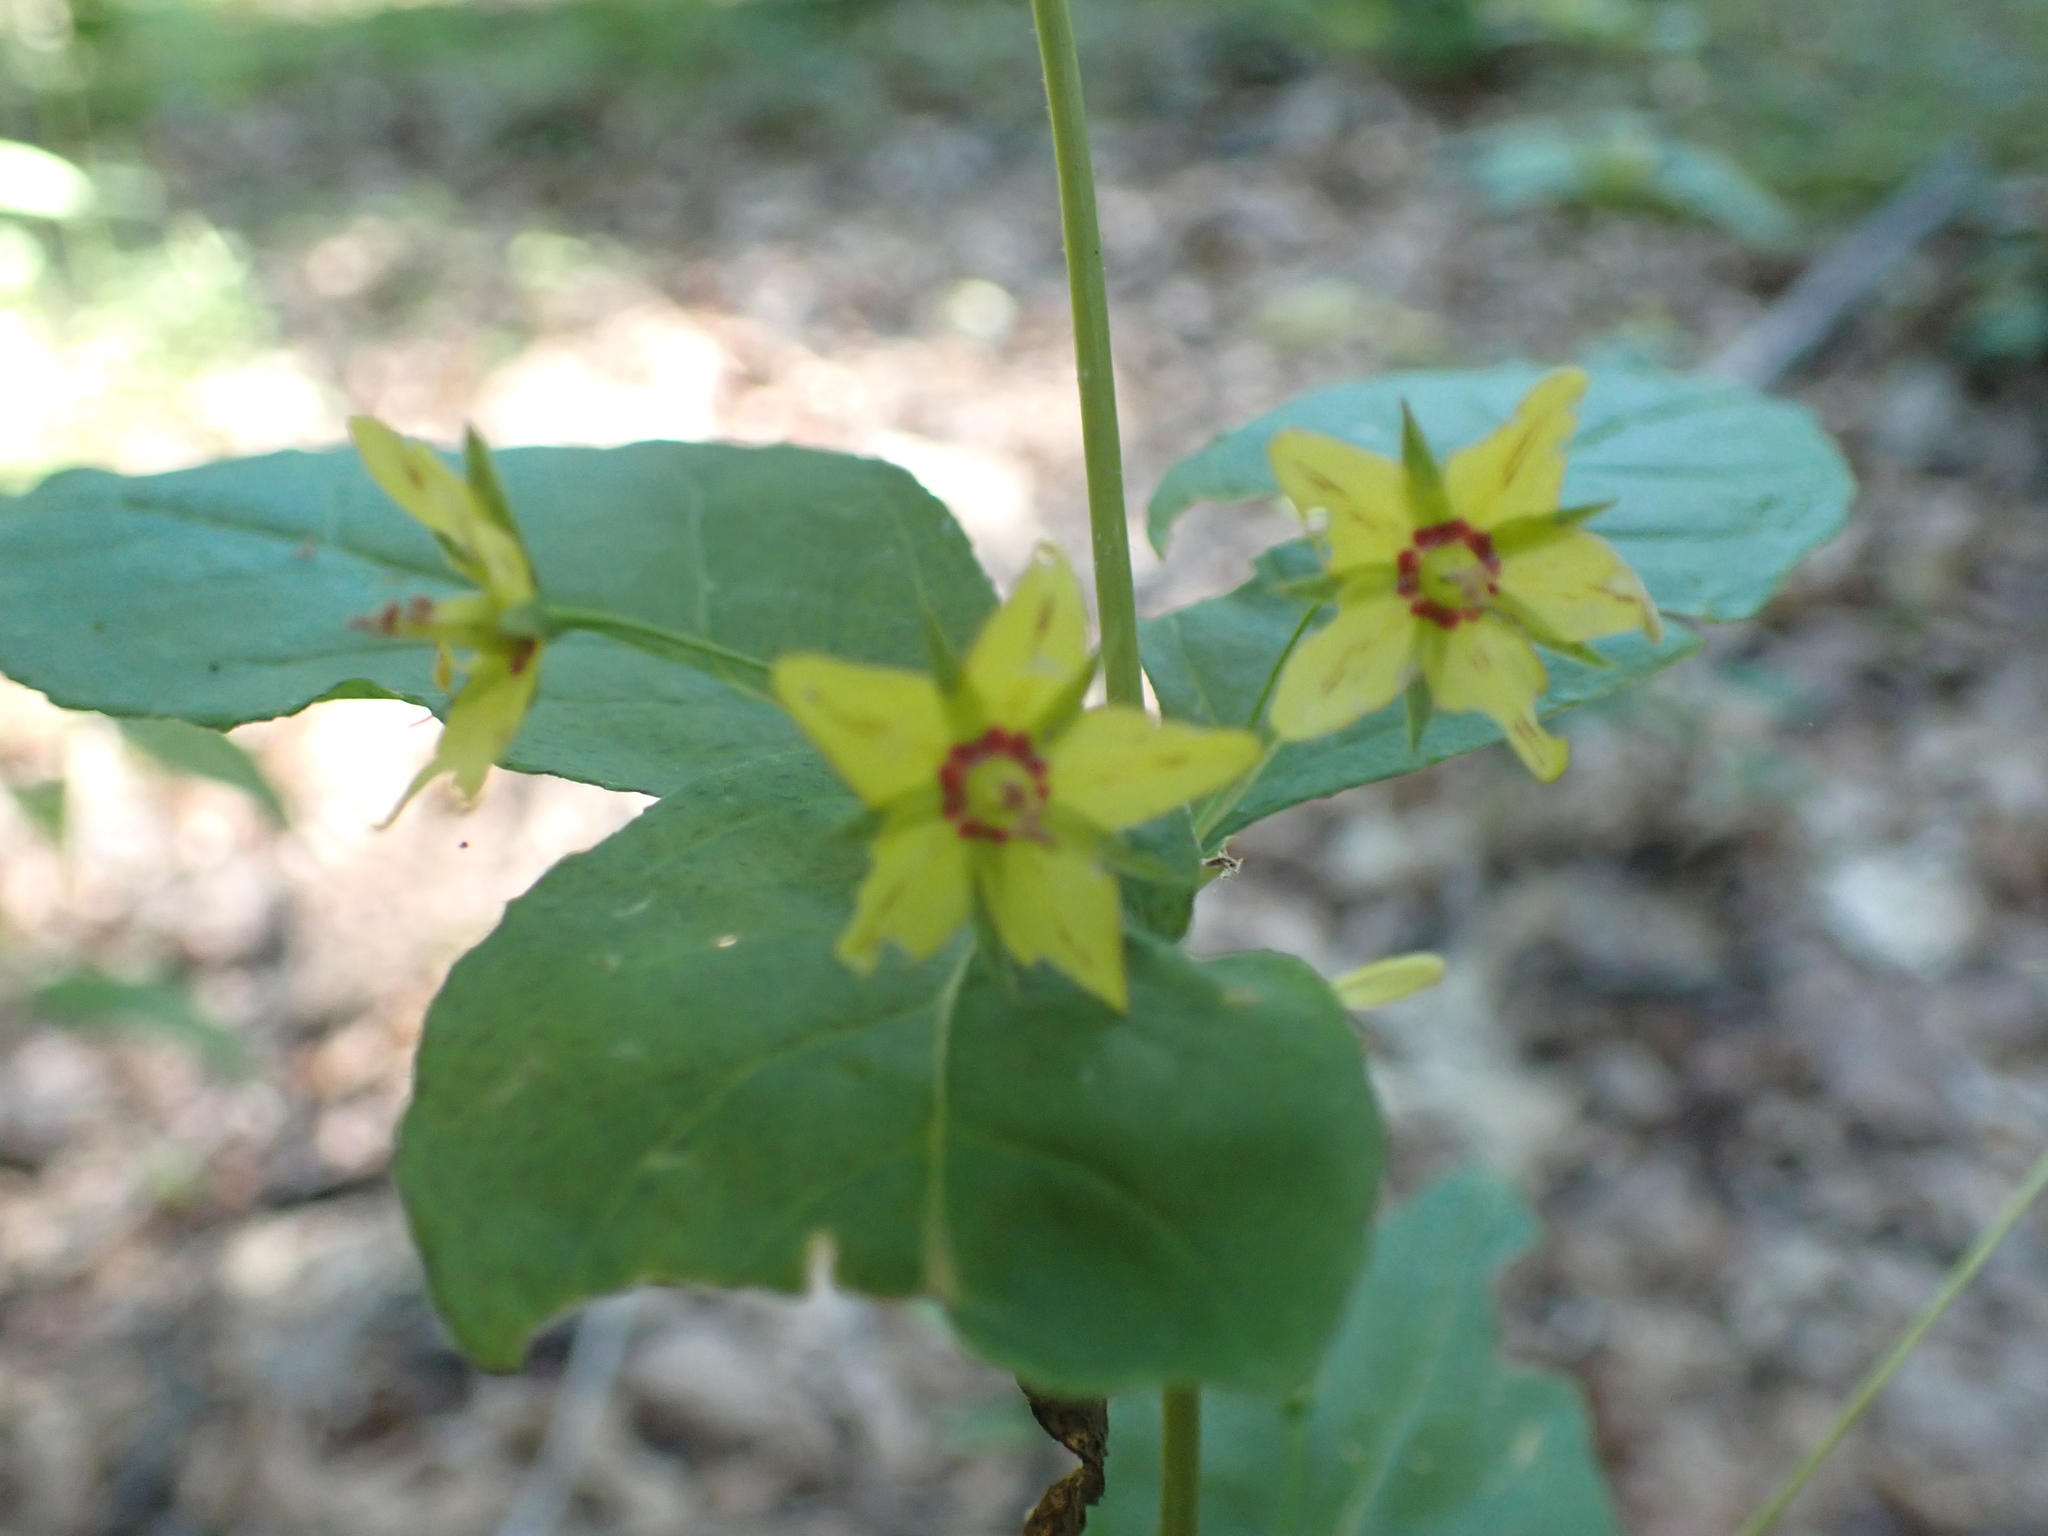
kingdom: Plantae
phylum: Tracheophyta
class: Magnoliopsida
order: Ericales
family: Primulaceae
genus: Lysimachia
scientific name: Lysimachia quadrifolia
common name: Whorled loosestrife
